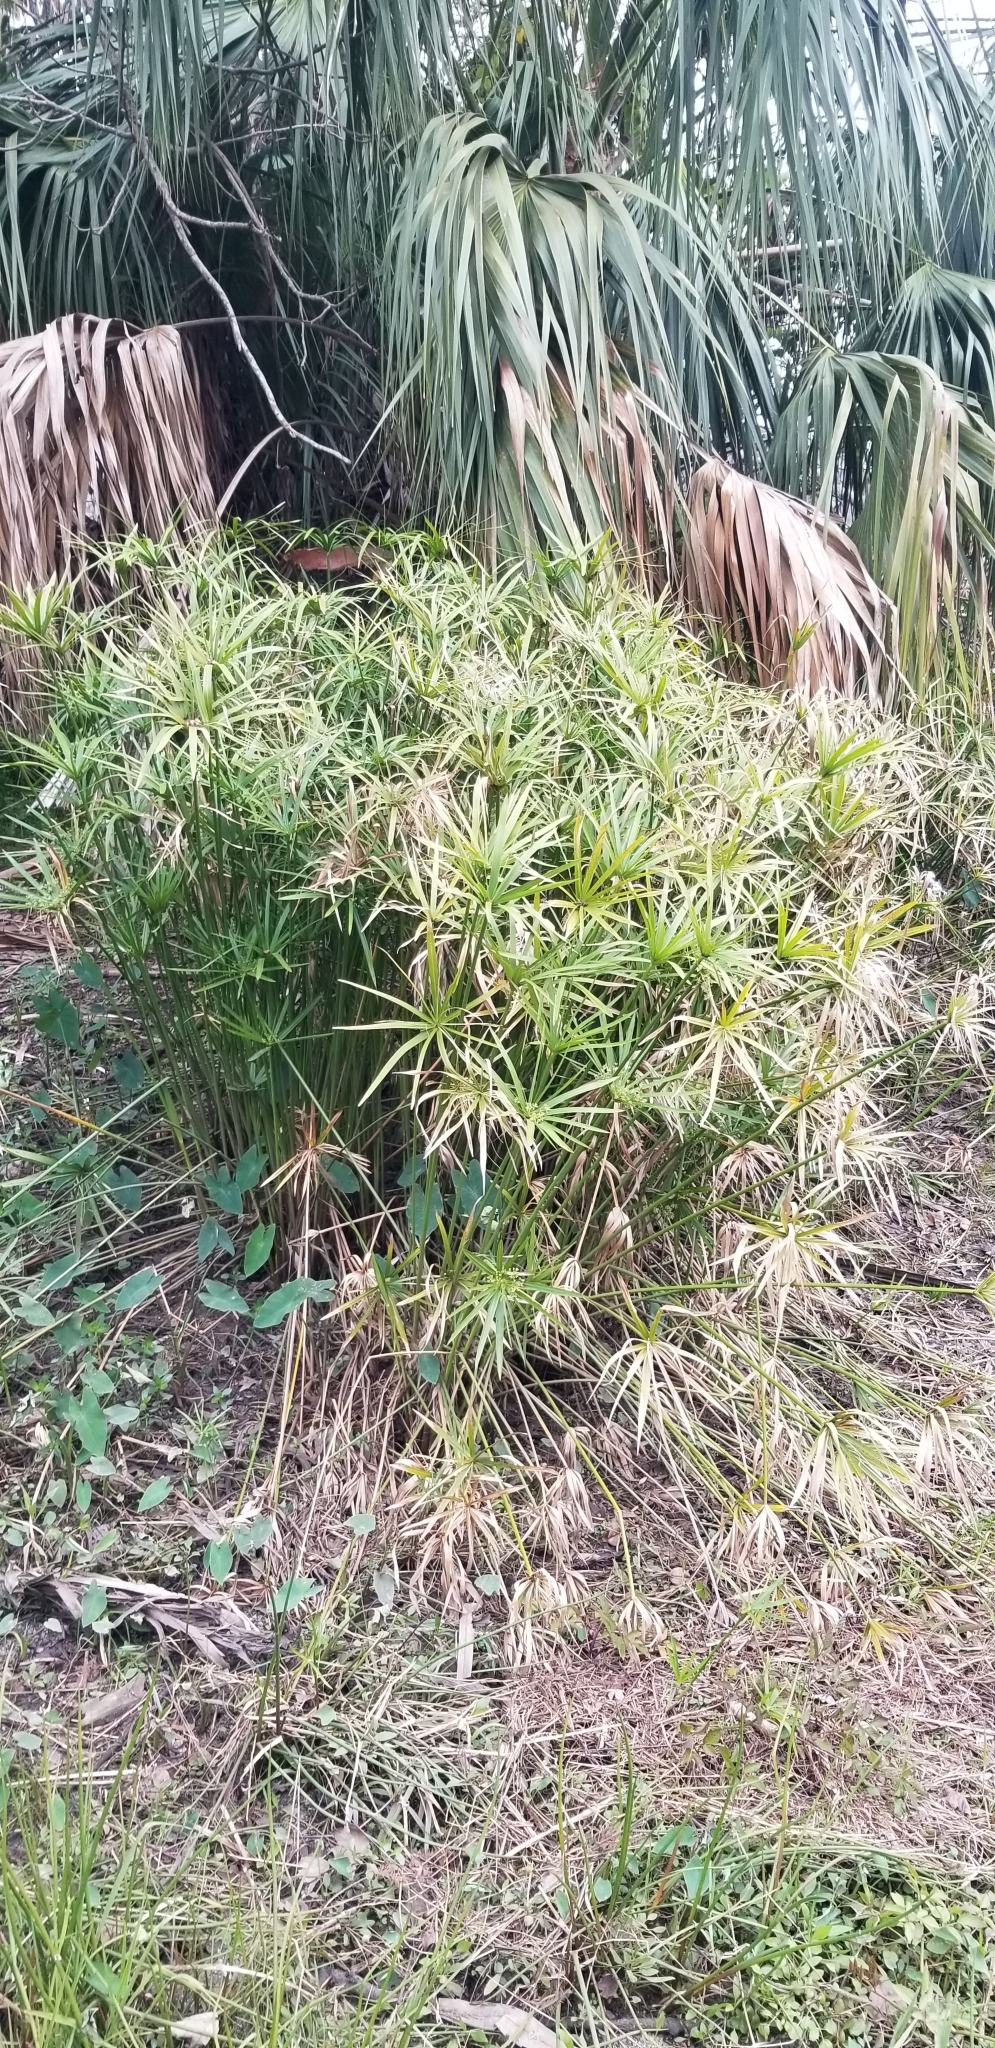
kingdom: Plantae
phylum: Tracheophyta
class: Liliopsida
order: Poales
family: Cyperaceae
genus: Cyperus
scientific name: Cyperus alternifolius
